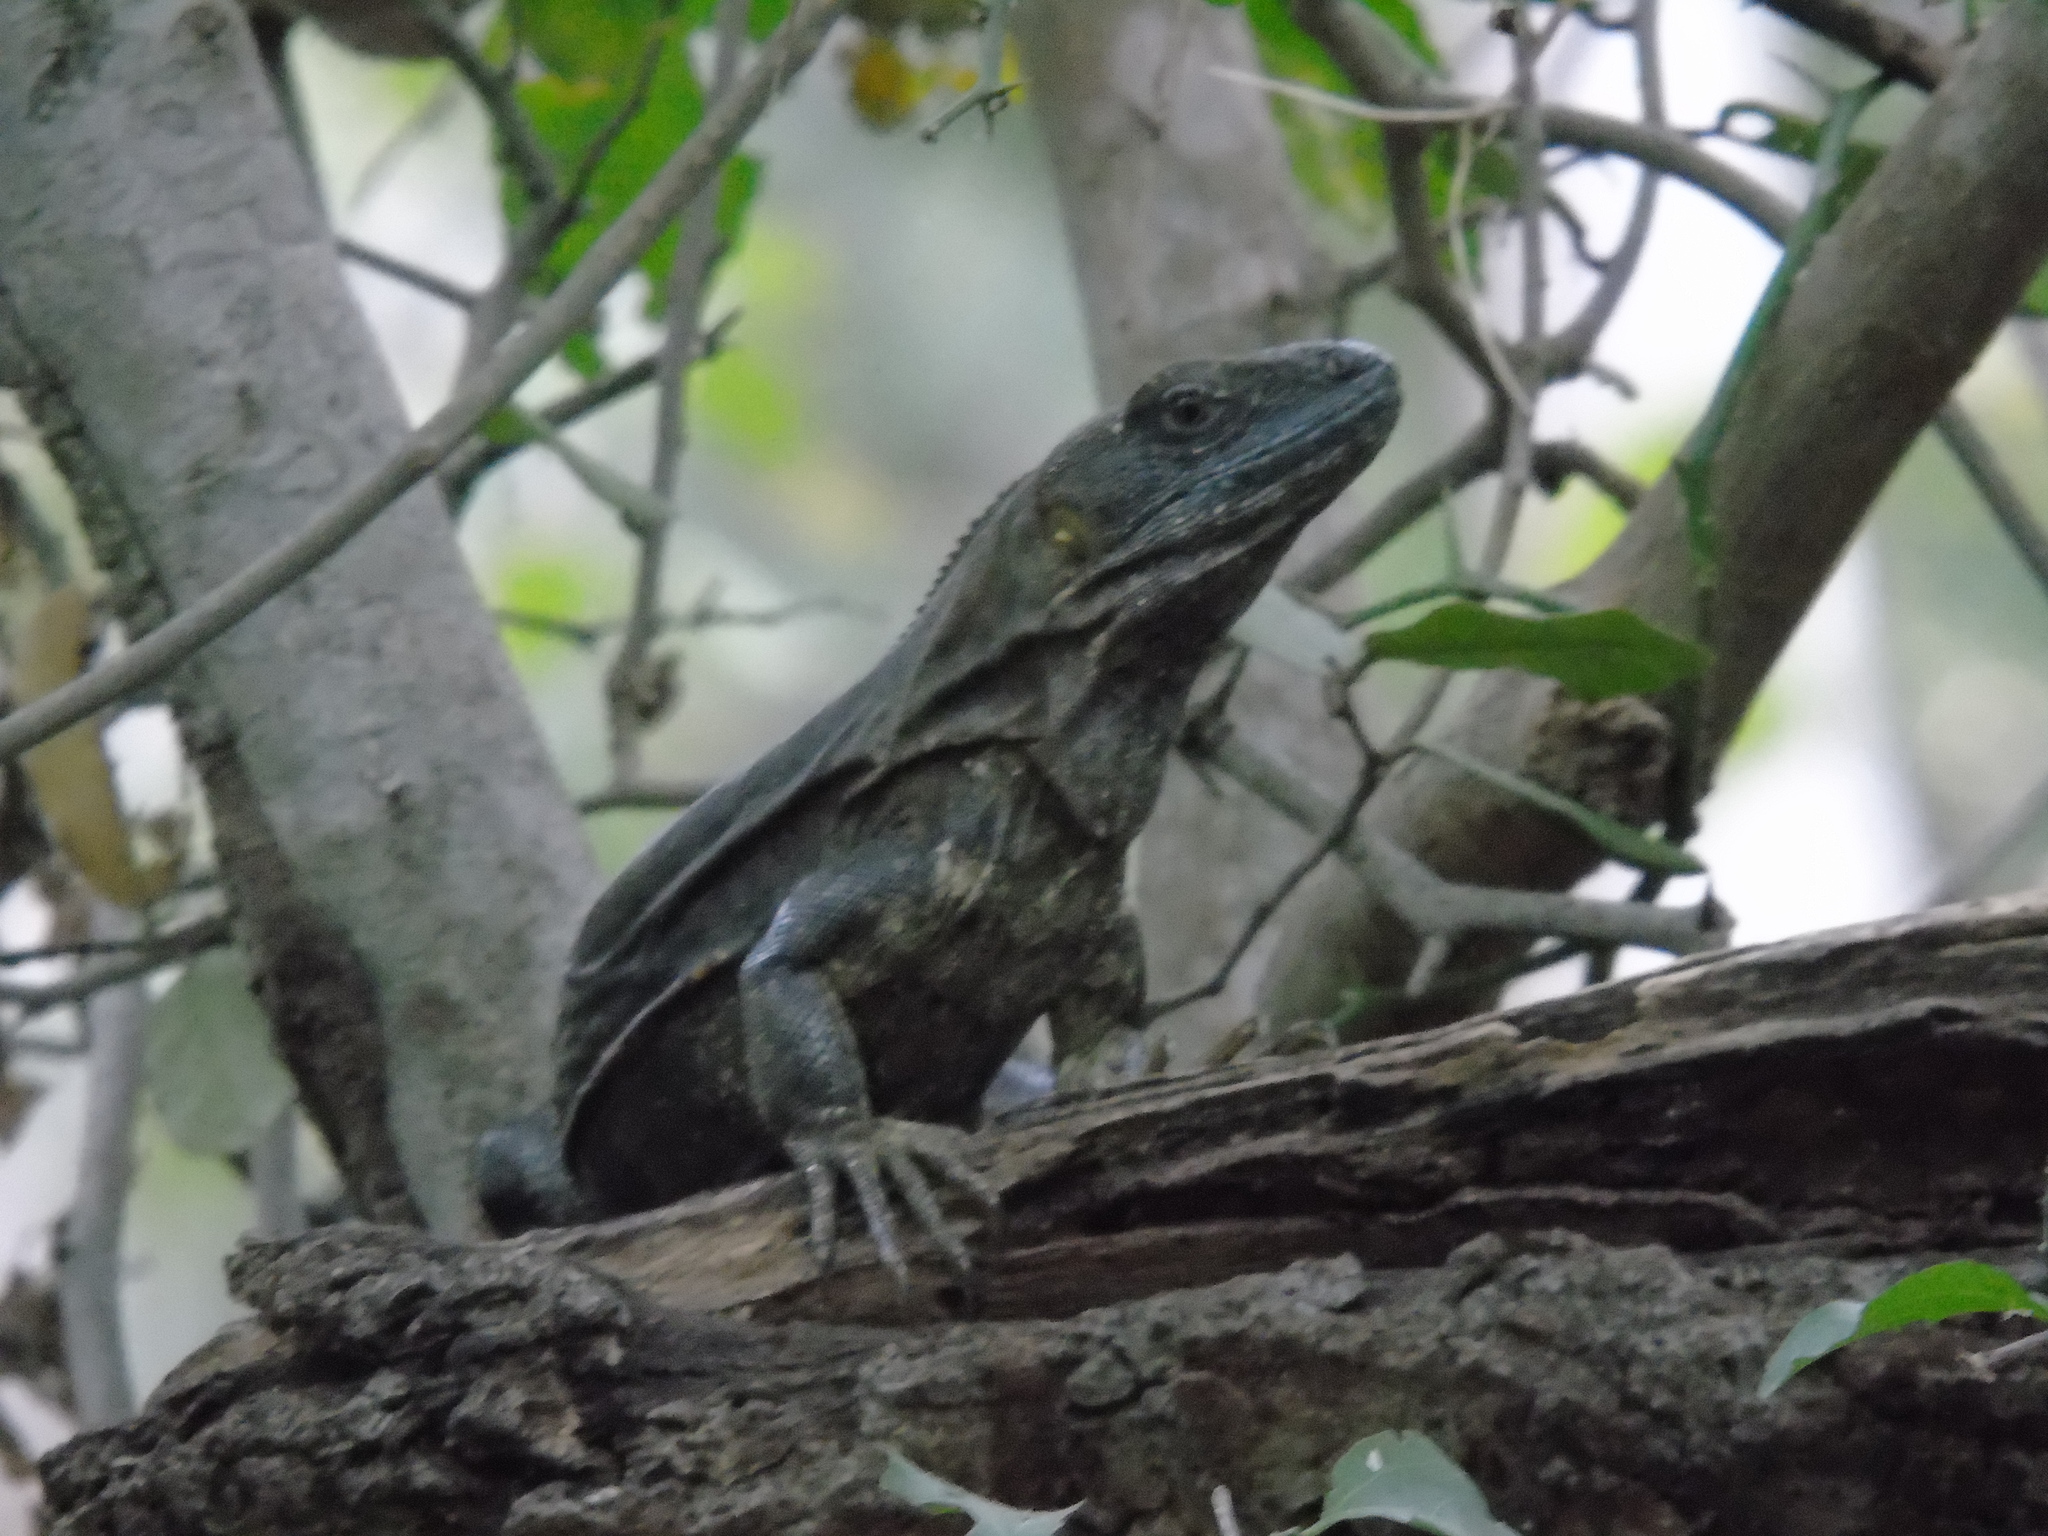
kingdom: Animalia
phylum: Chordata
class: Squamata
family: Iguanidae
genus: Ctenosaura
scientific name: Ctenosaura pectinata
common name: Guerreran spiny-tailed iguana
